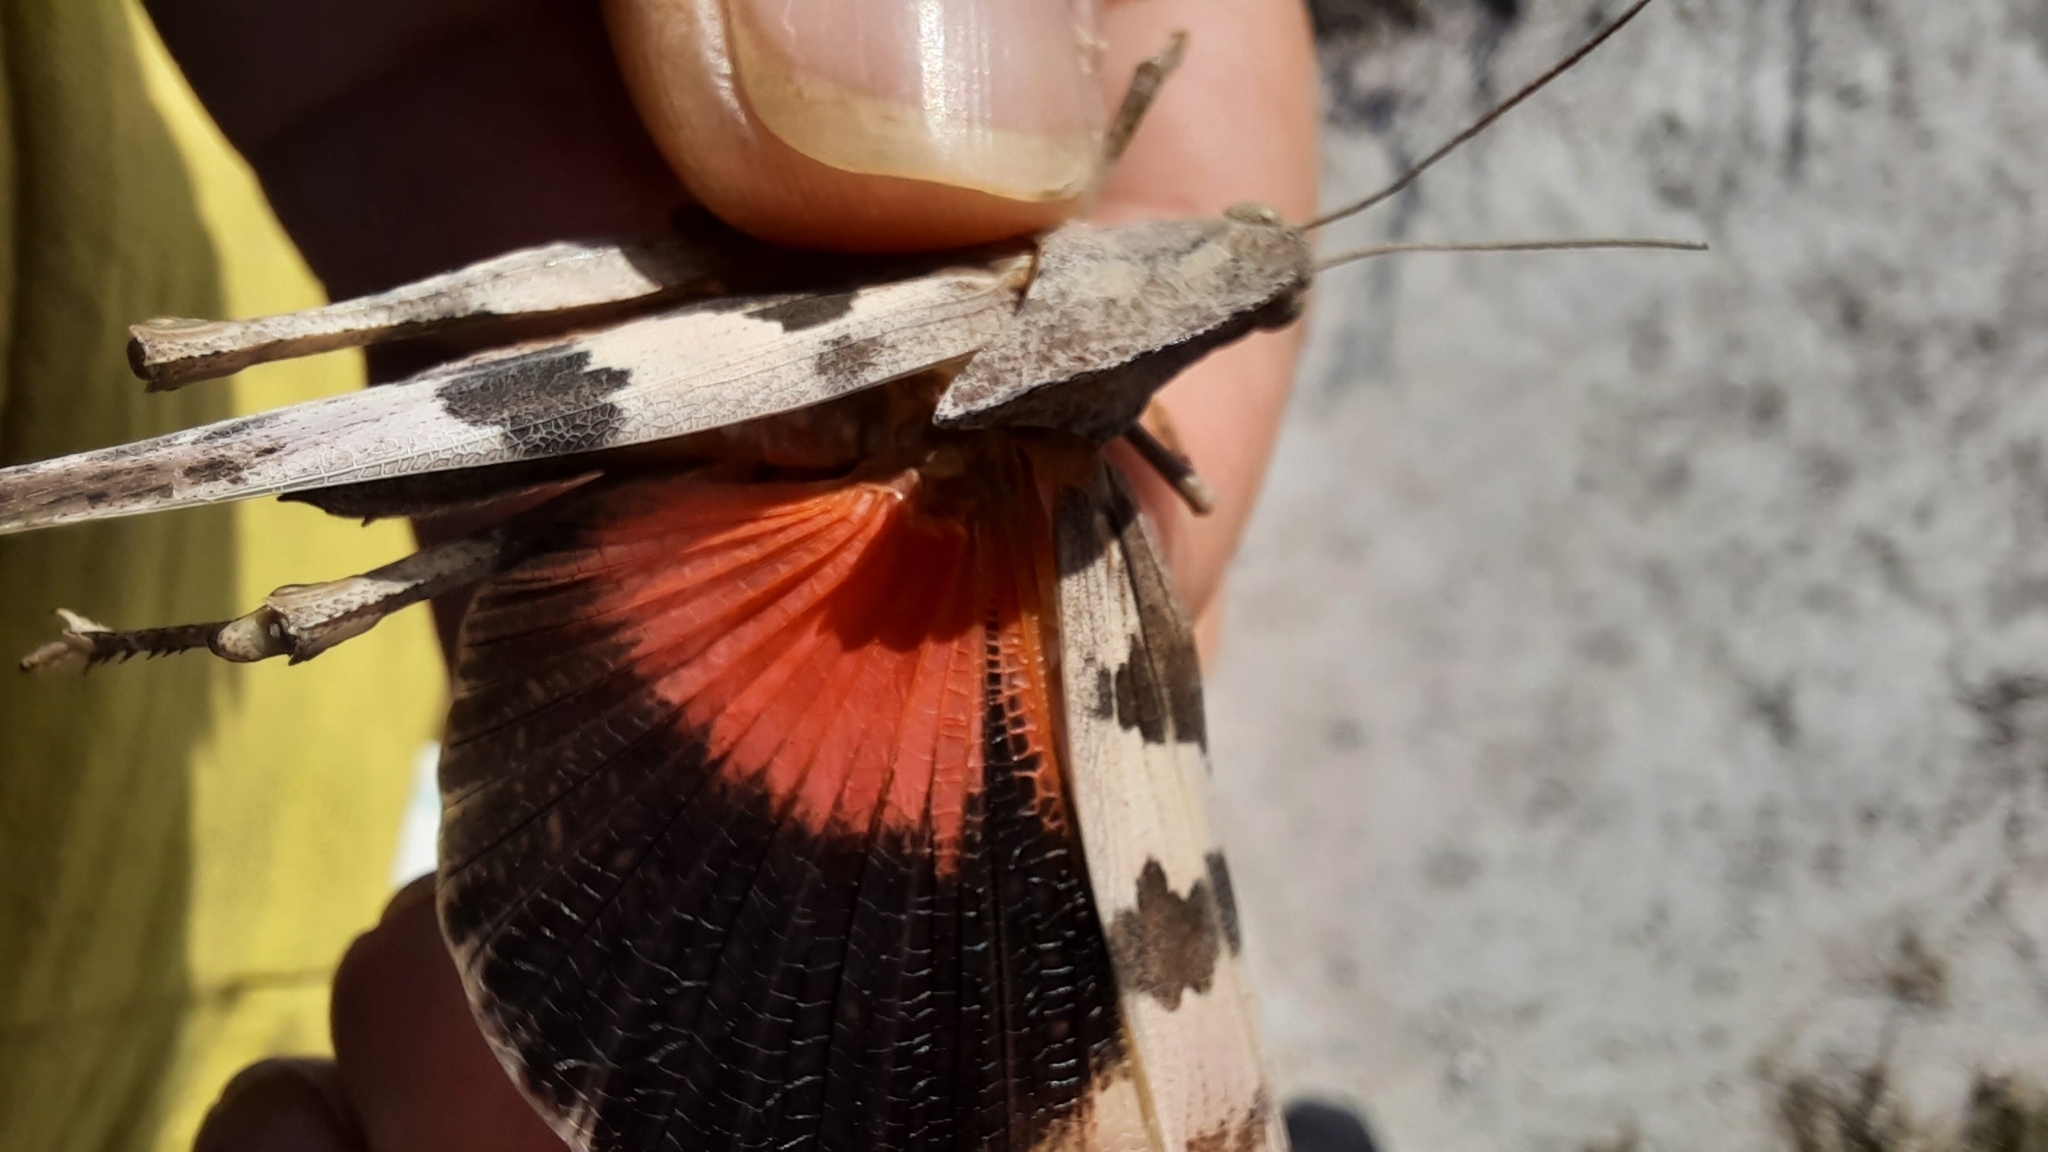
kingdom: Animalia
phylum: Arthropoda
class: Insecta
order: Orthoptera
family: Acrididae
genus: Pyrgodera
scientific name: Pyrgodera armata
